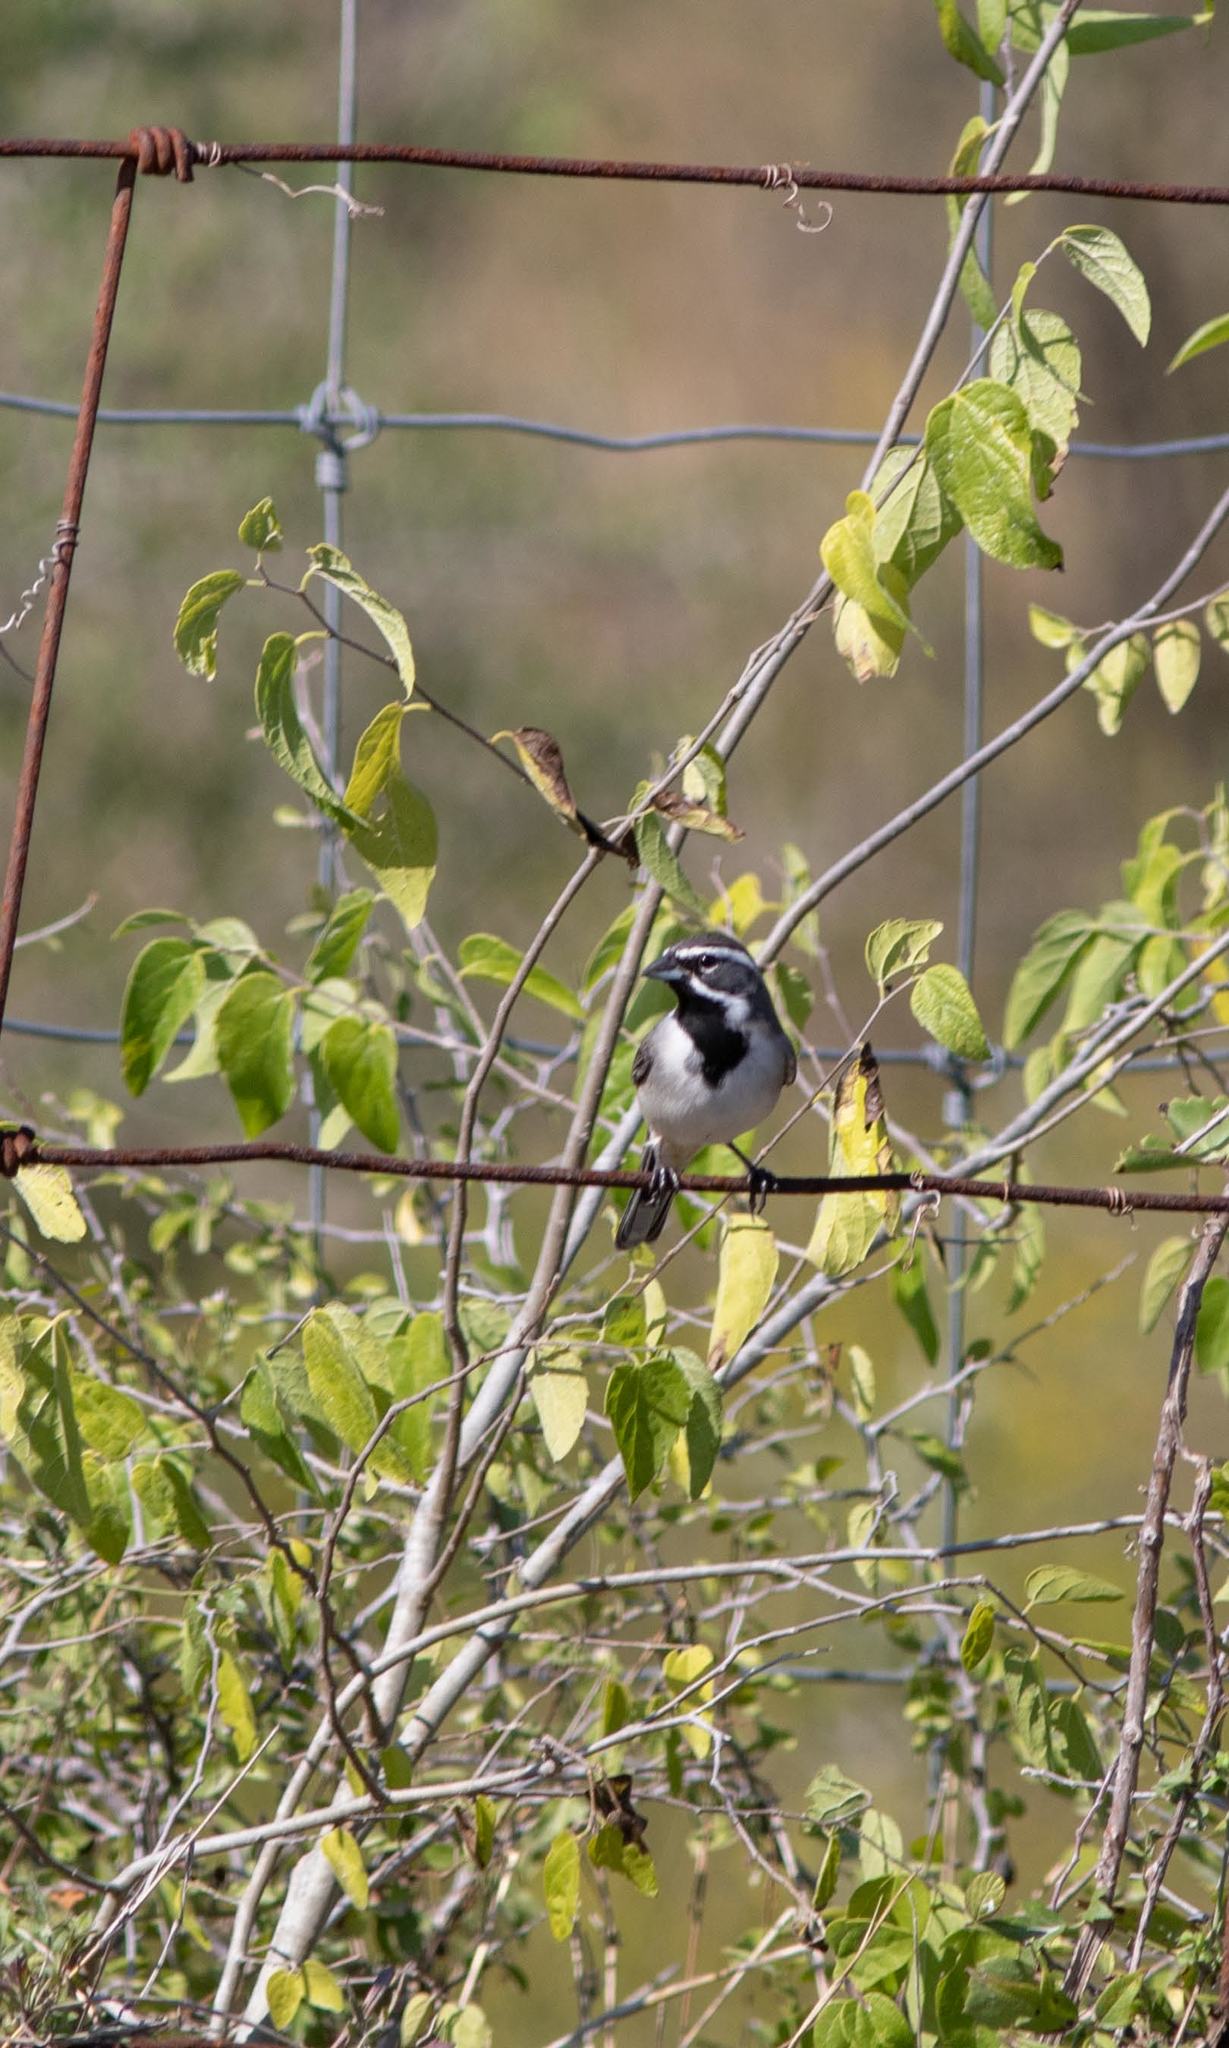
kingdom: Animalia
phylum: Chordata
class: Aves
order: Passeriformes
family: Passerellidae
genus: Amphispiza
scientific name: Amphispiza bilineata
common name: Black-throated sparrow
